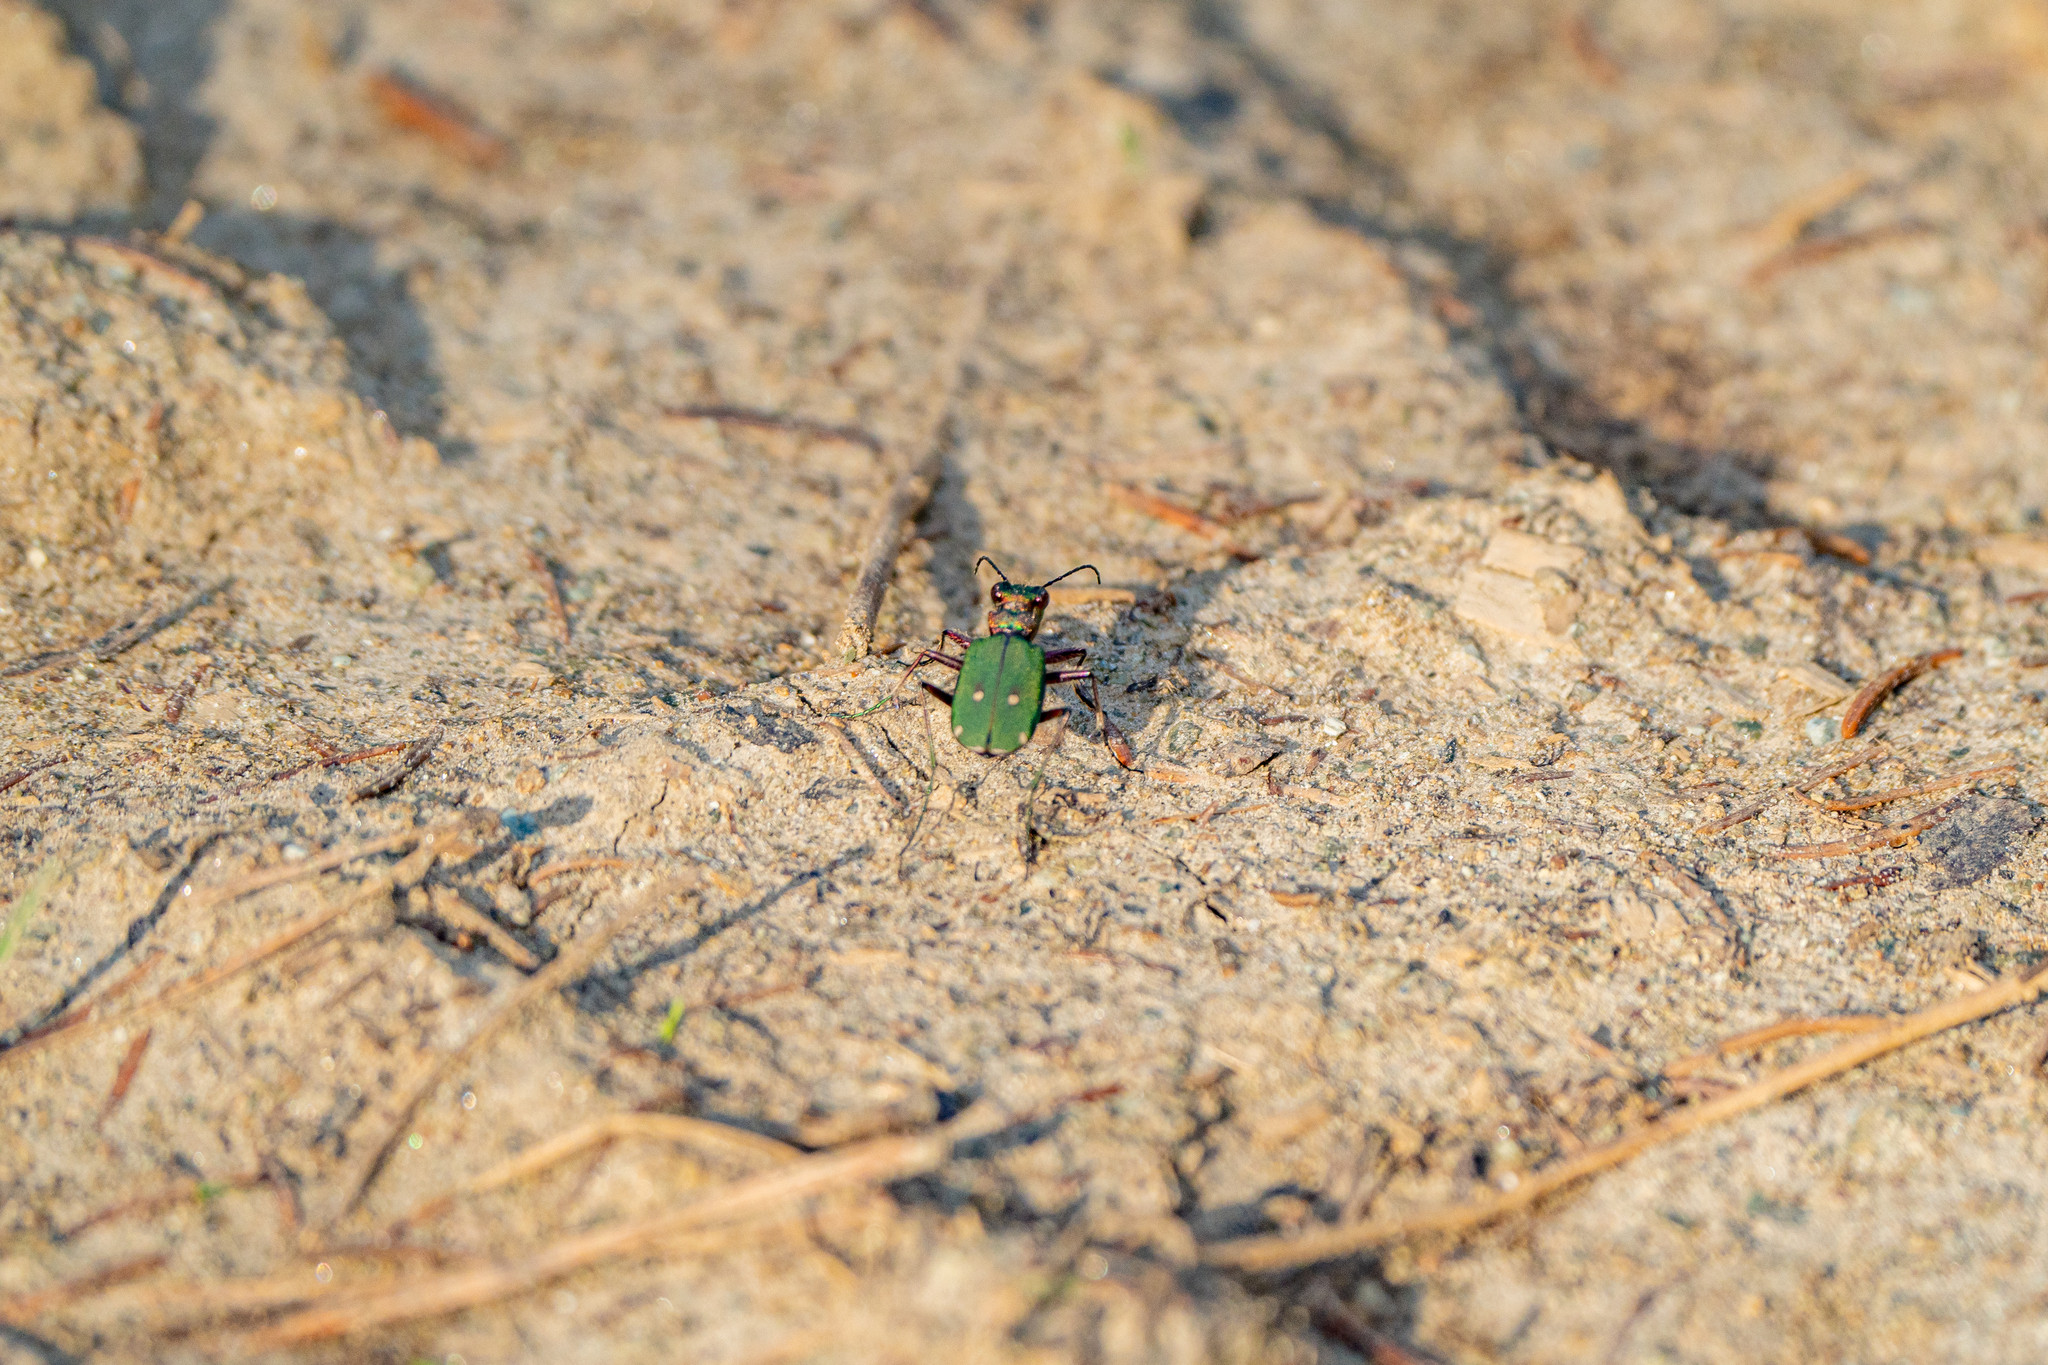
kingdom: Animalia
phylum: Arthropoda
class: Insecta
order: Coleoptera
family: Carabidae
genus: Cicindela
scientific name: Cicindela campestris
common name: Common tiger beetle
